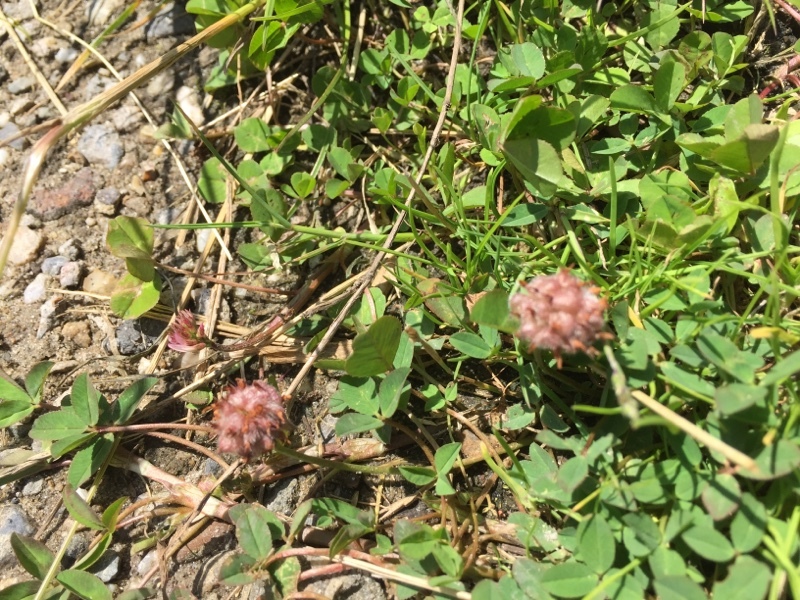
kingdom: Plantae
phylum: Tracheophyta
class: Magnoliopsida
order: Fabales
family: Fabaceae
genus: Trifolium
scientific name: Trifolium fragiferum
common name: Strawberry clover
